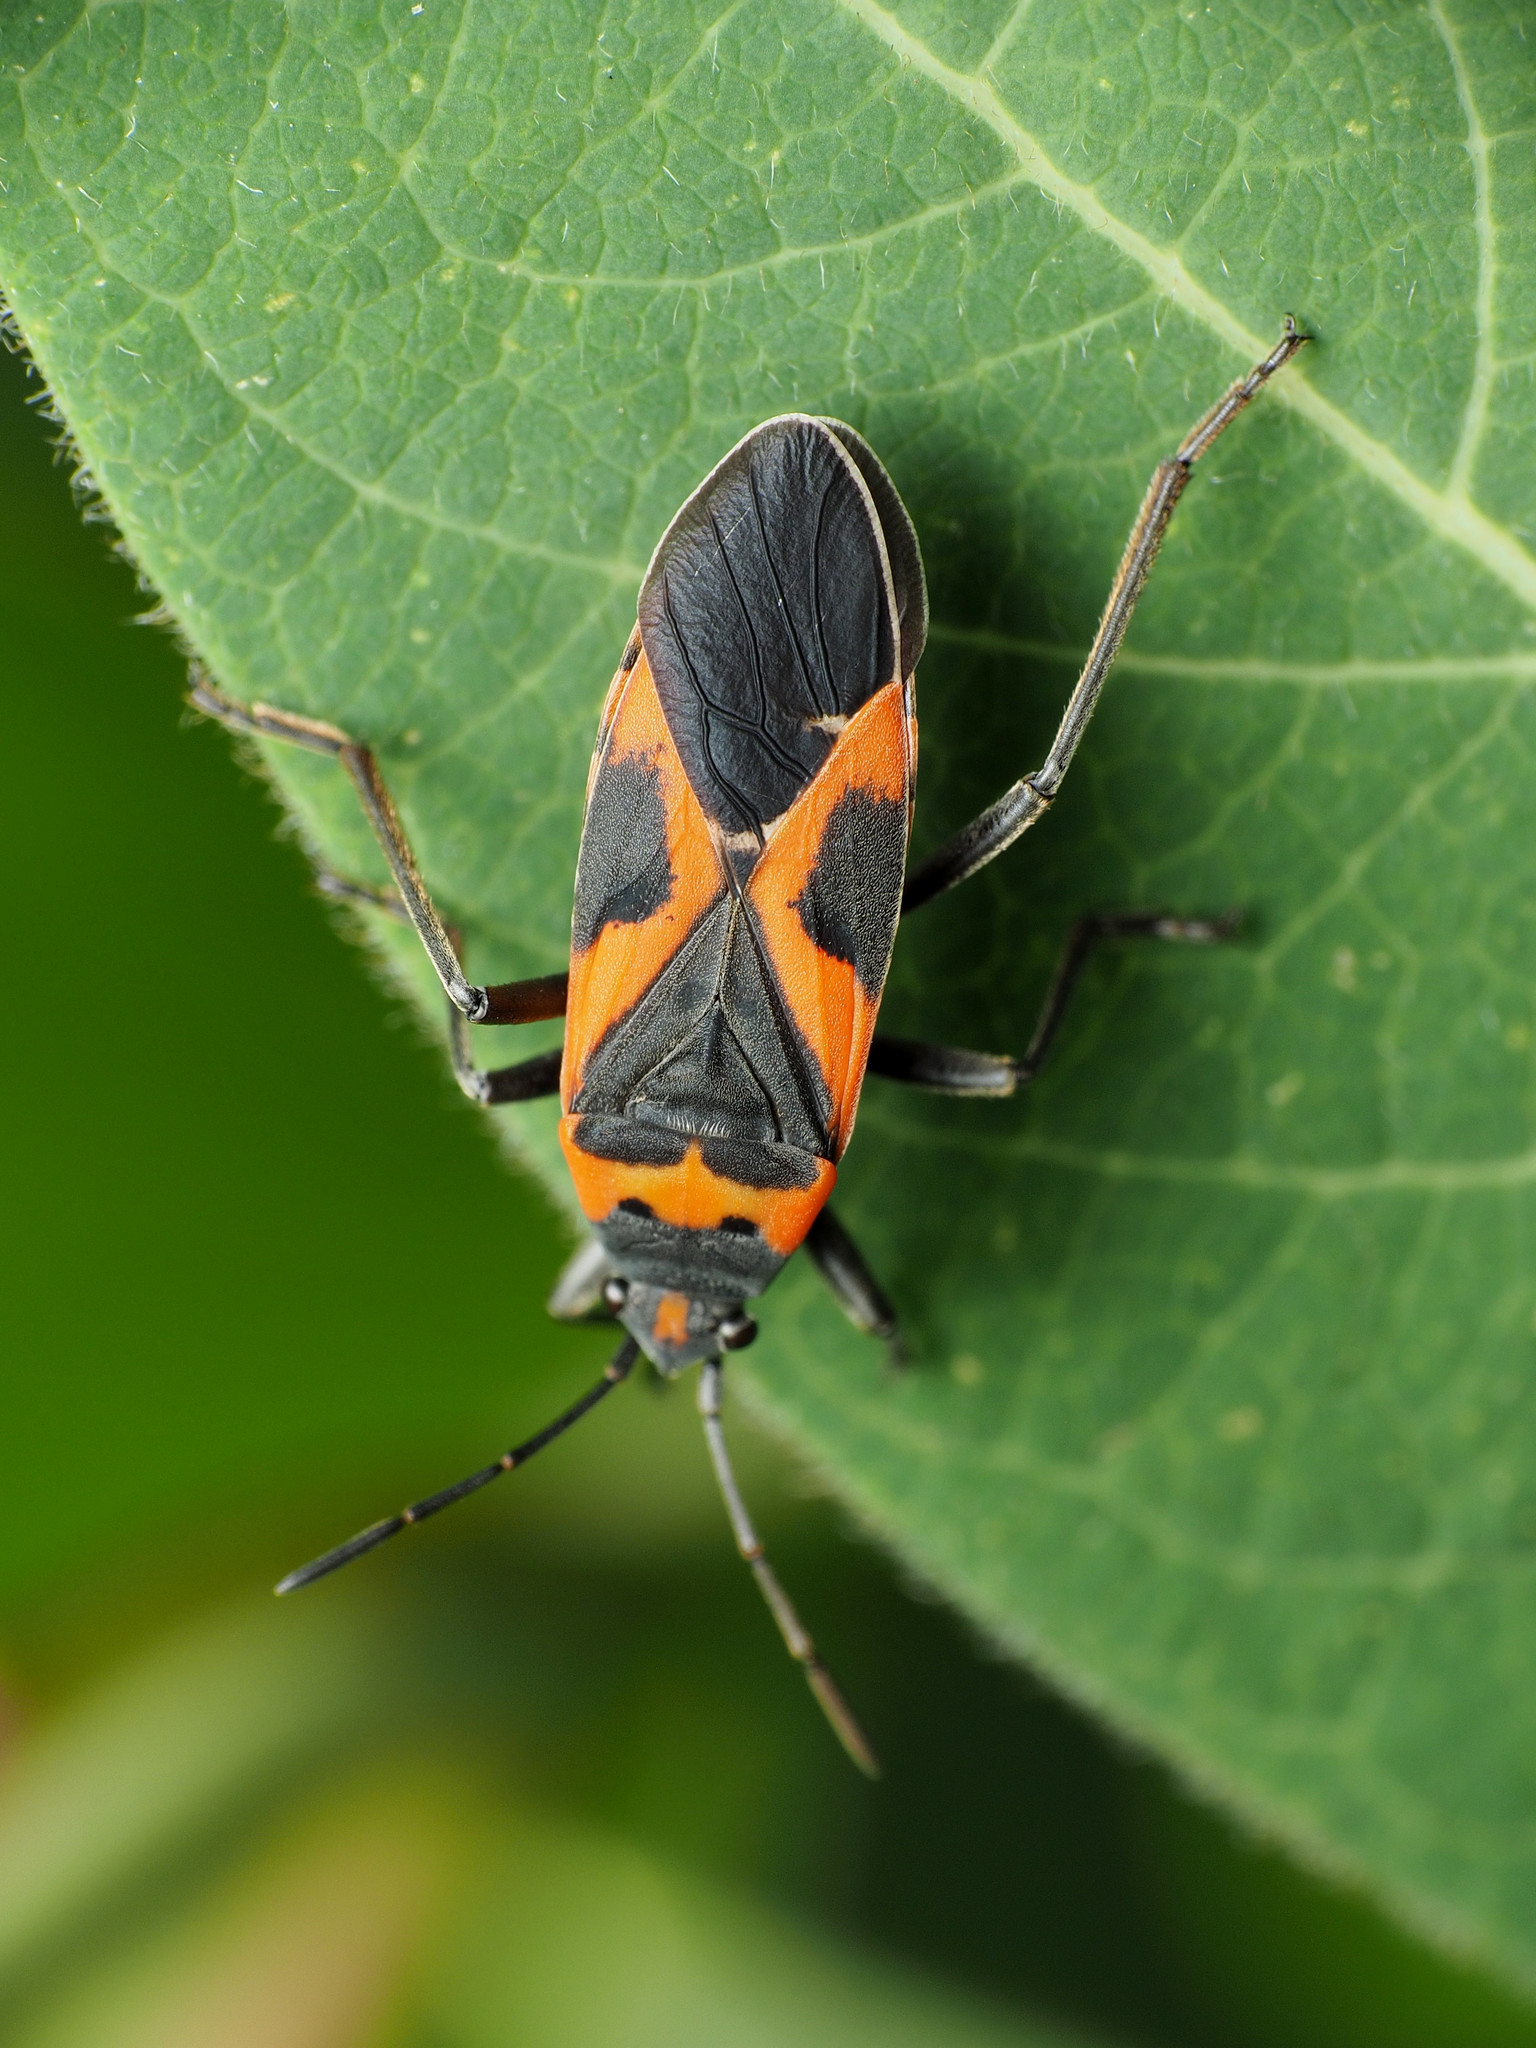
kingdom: Animalia
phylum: Arthropoda
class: Insecta
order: Hemiptera
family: Lygaeidae
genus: Lygaeus
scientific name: Lygaeus kalmii
